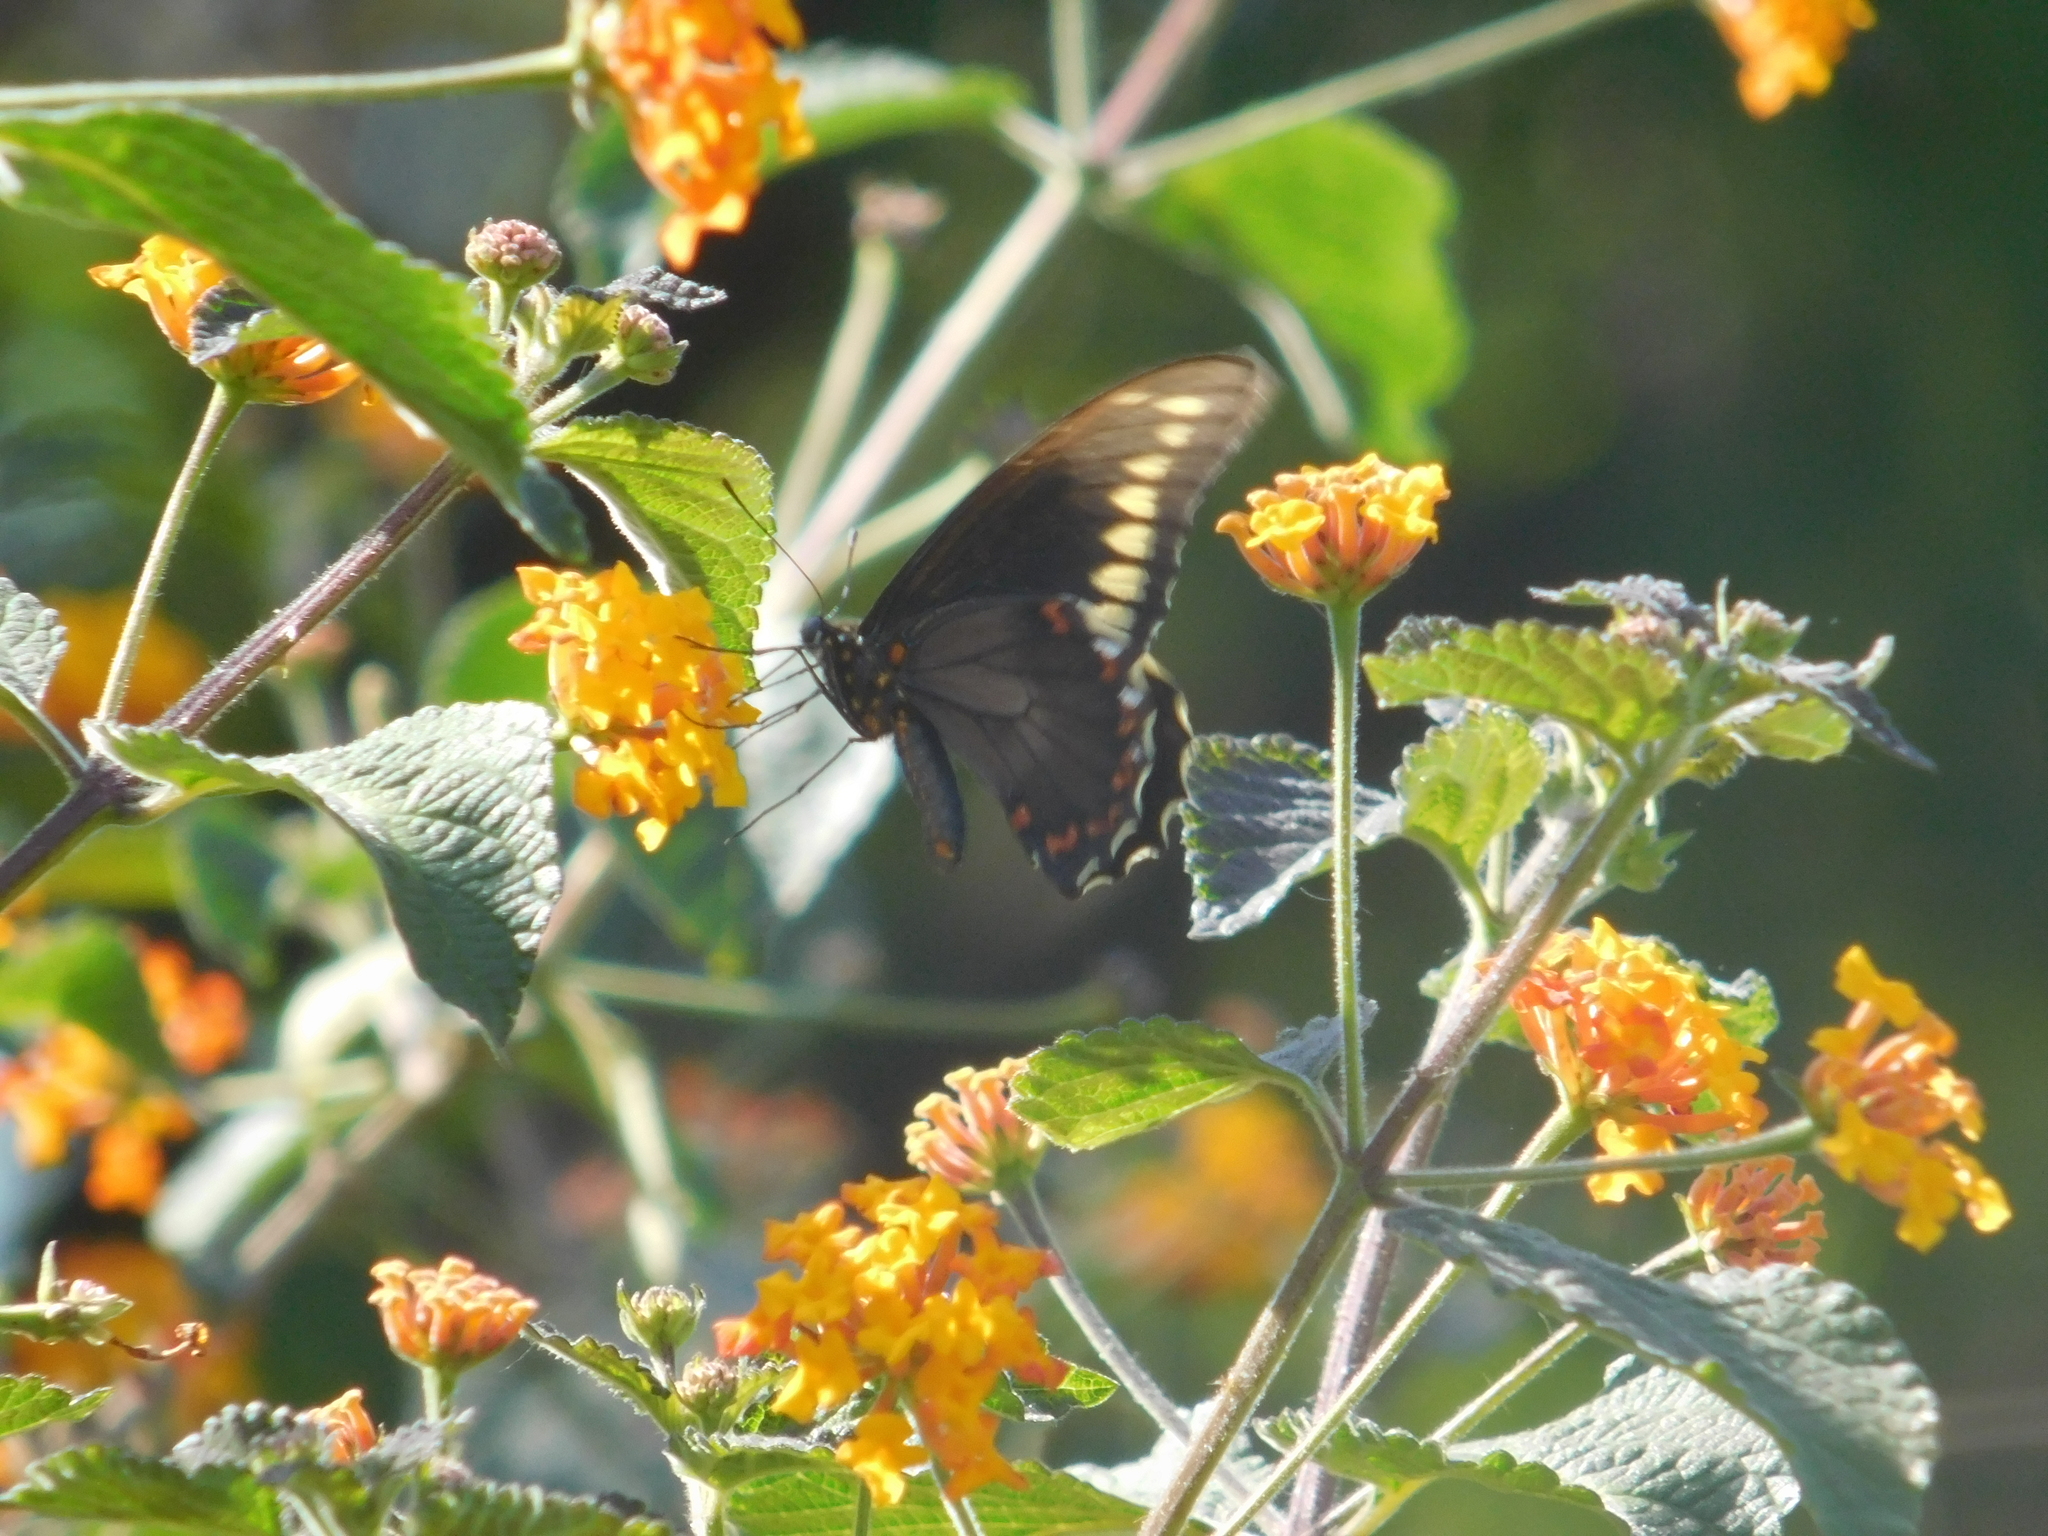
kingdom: Animalia
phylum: Arthropoda
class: Insecta
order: Lepidoptera
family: Papilionidae
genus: Battus
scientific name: Battus polydamas
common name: Polydamas swallowtail
